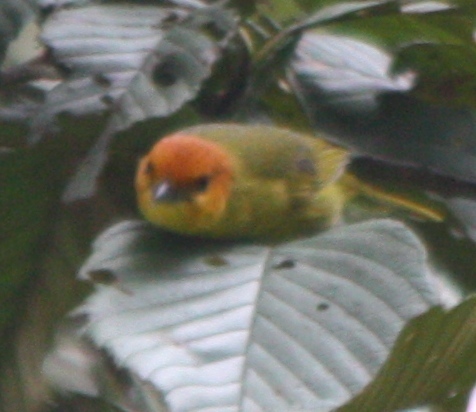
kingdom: Animalia
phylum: Chordata
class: Aves
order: Passeriformes
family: Thraupidae
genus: Thlypopsis
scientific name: Thlypopsis ruficeps
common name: Rust-and-yellow tanager
